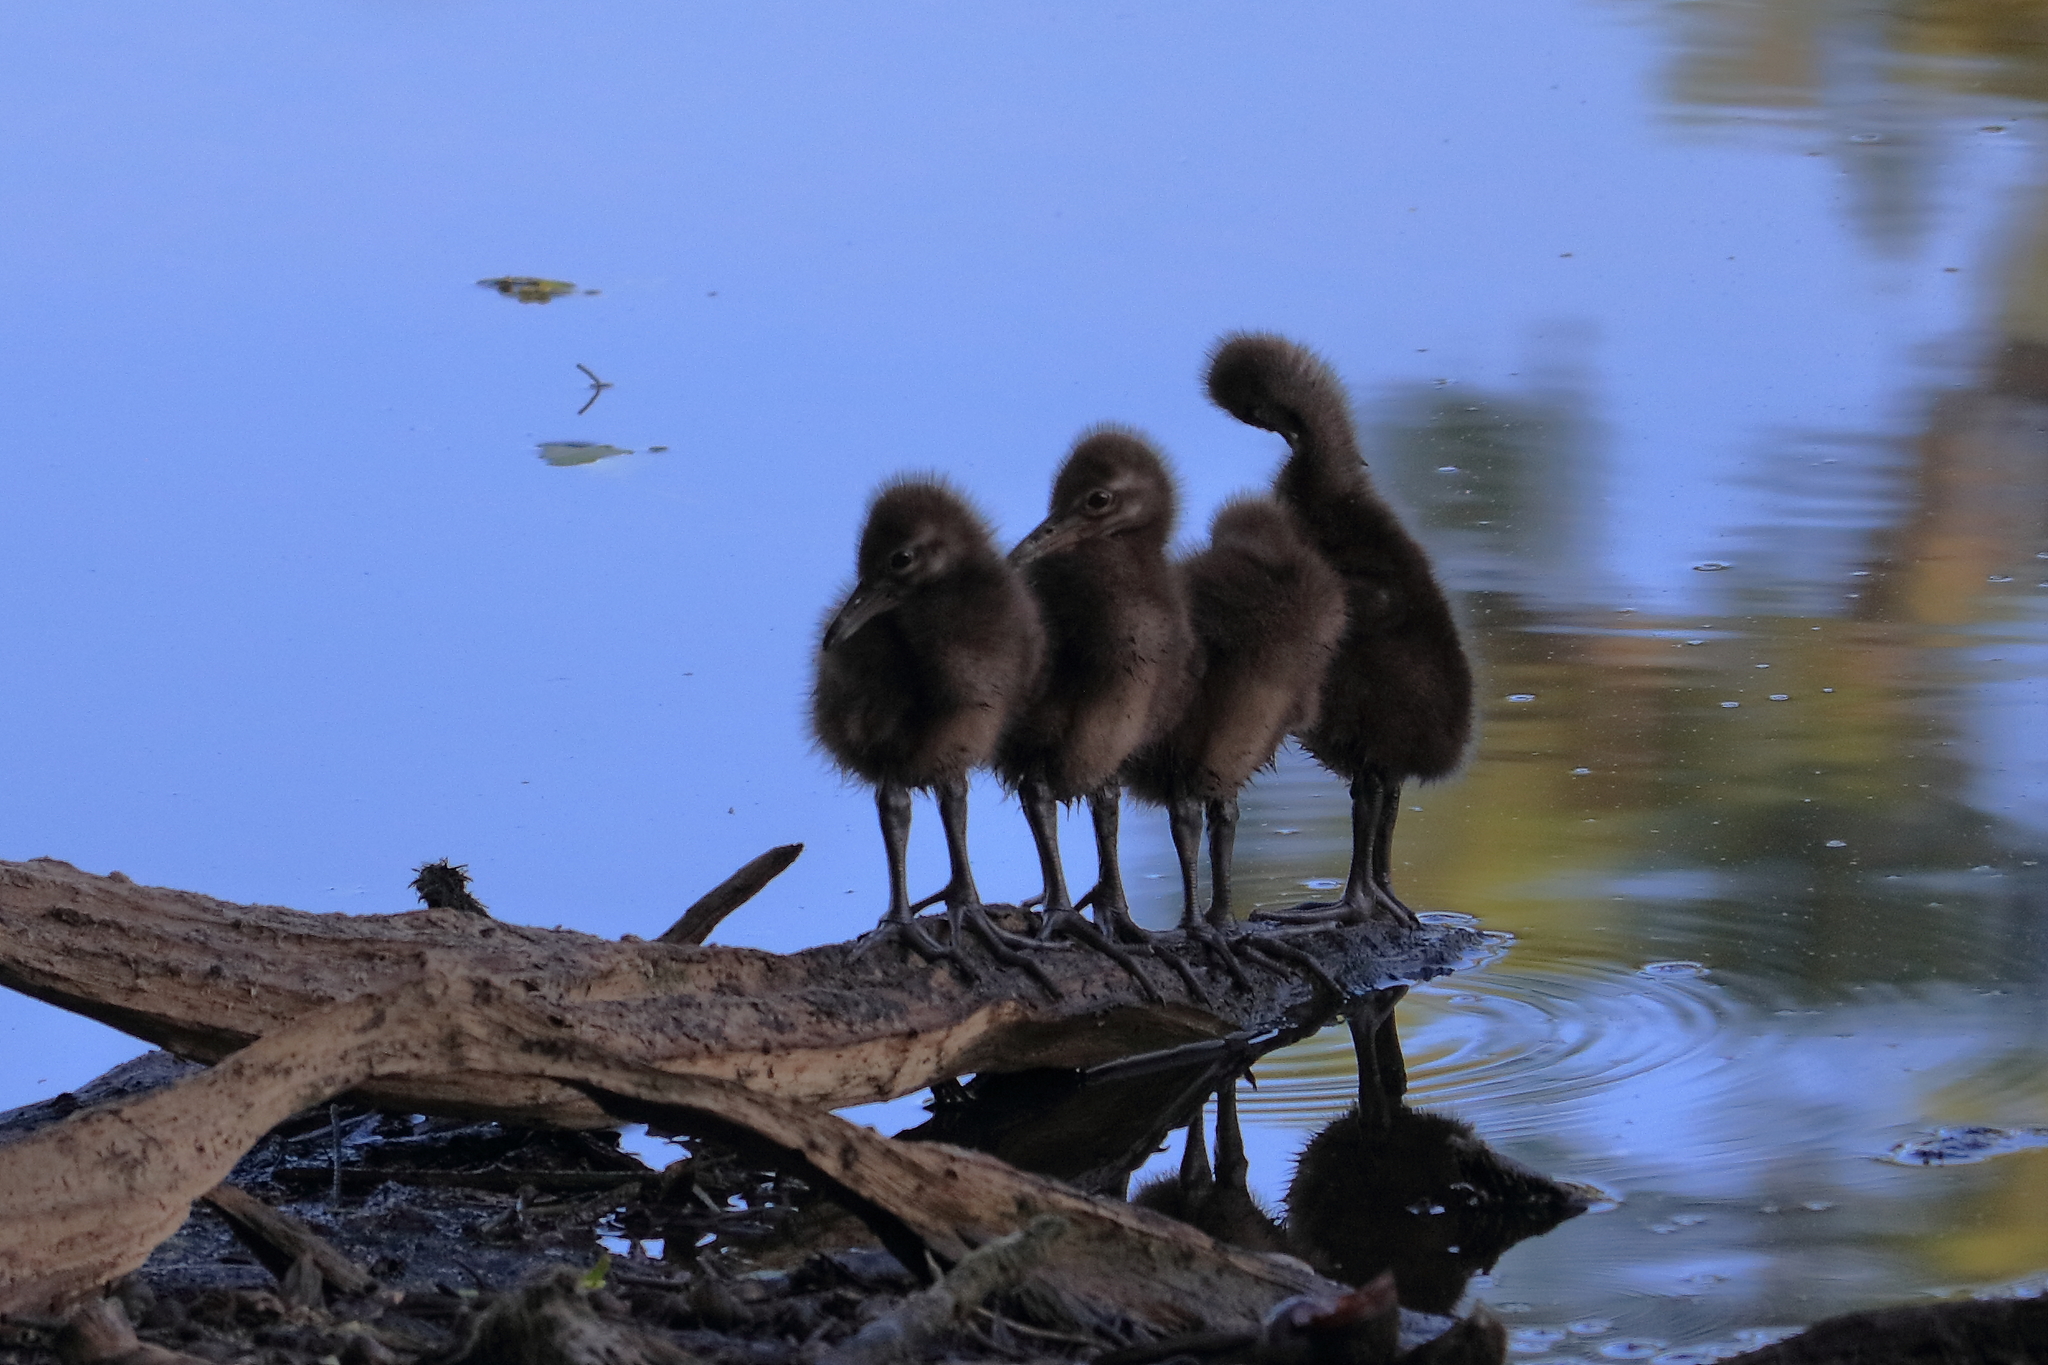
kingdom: Animalia
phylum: Chordata
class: Aves
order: Gruiformes
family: Aramidae
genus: Aramus
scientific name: Aramus guarauna
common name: Limpkin
